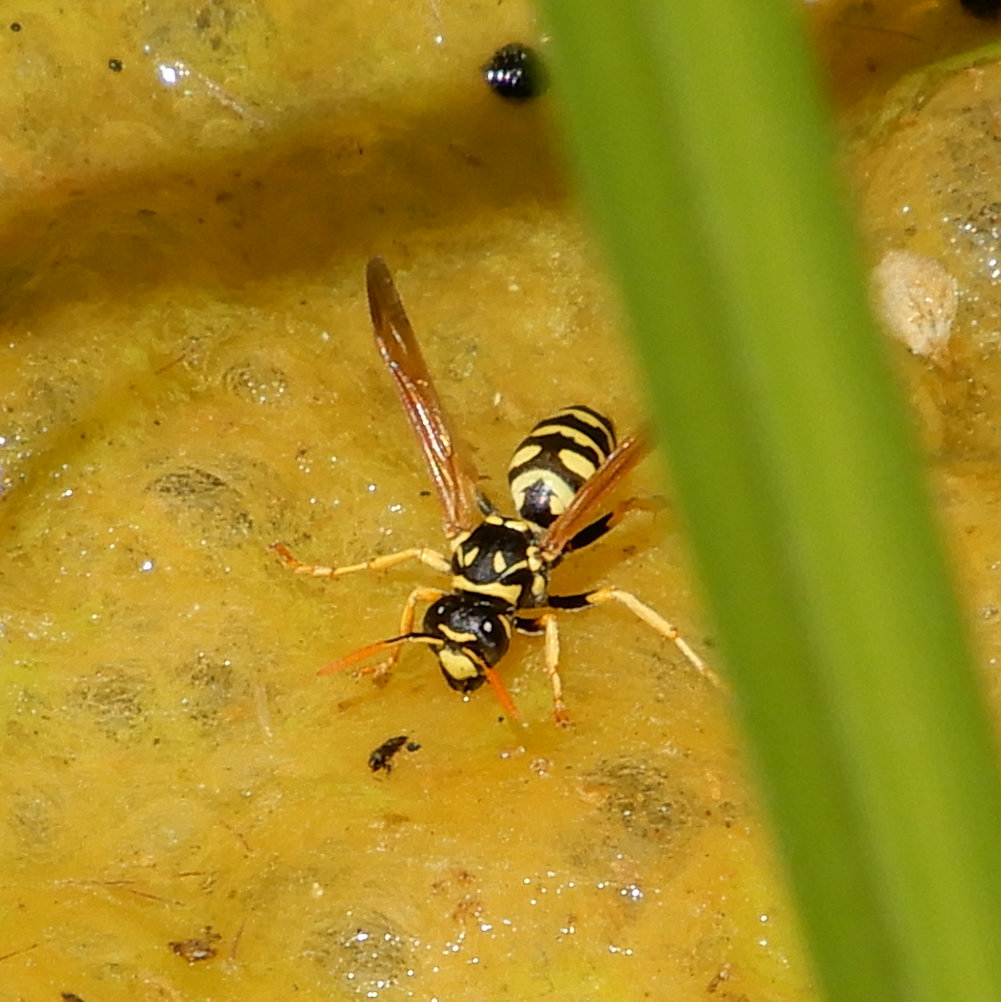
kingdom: Animalia
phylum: Arthropoda
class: Insecta
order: Hymenoptera
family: Eumenidae
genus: Polistes
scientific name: Polistes dominula
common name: Paper wasp
